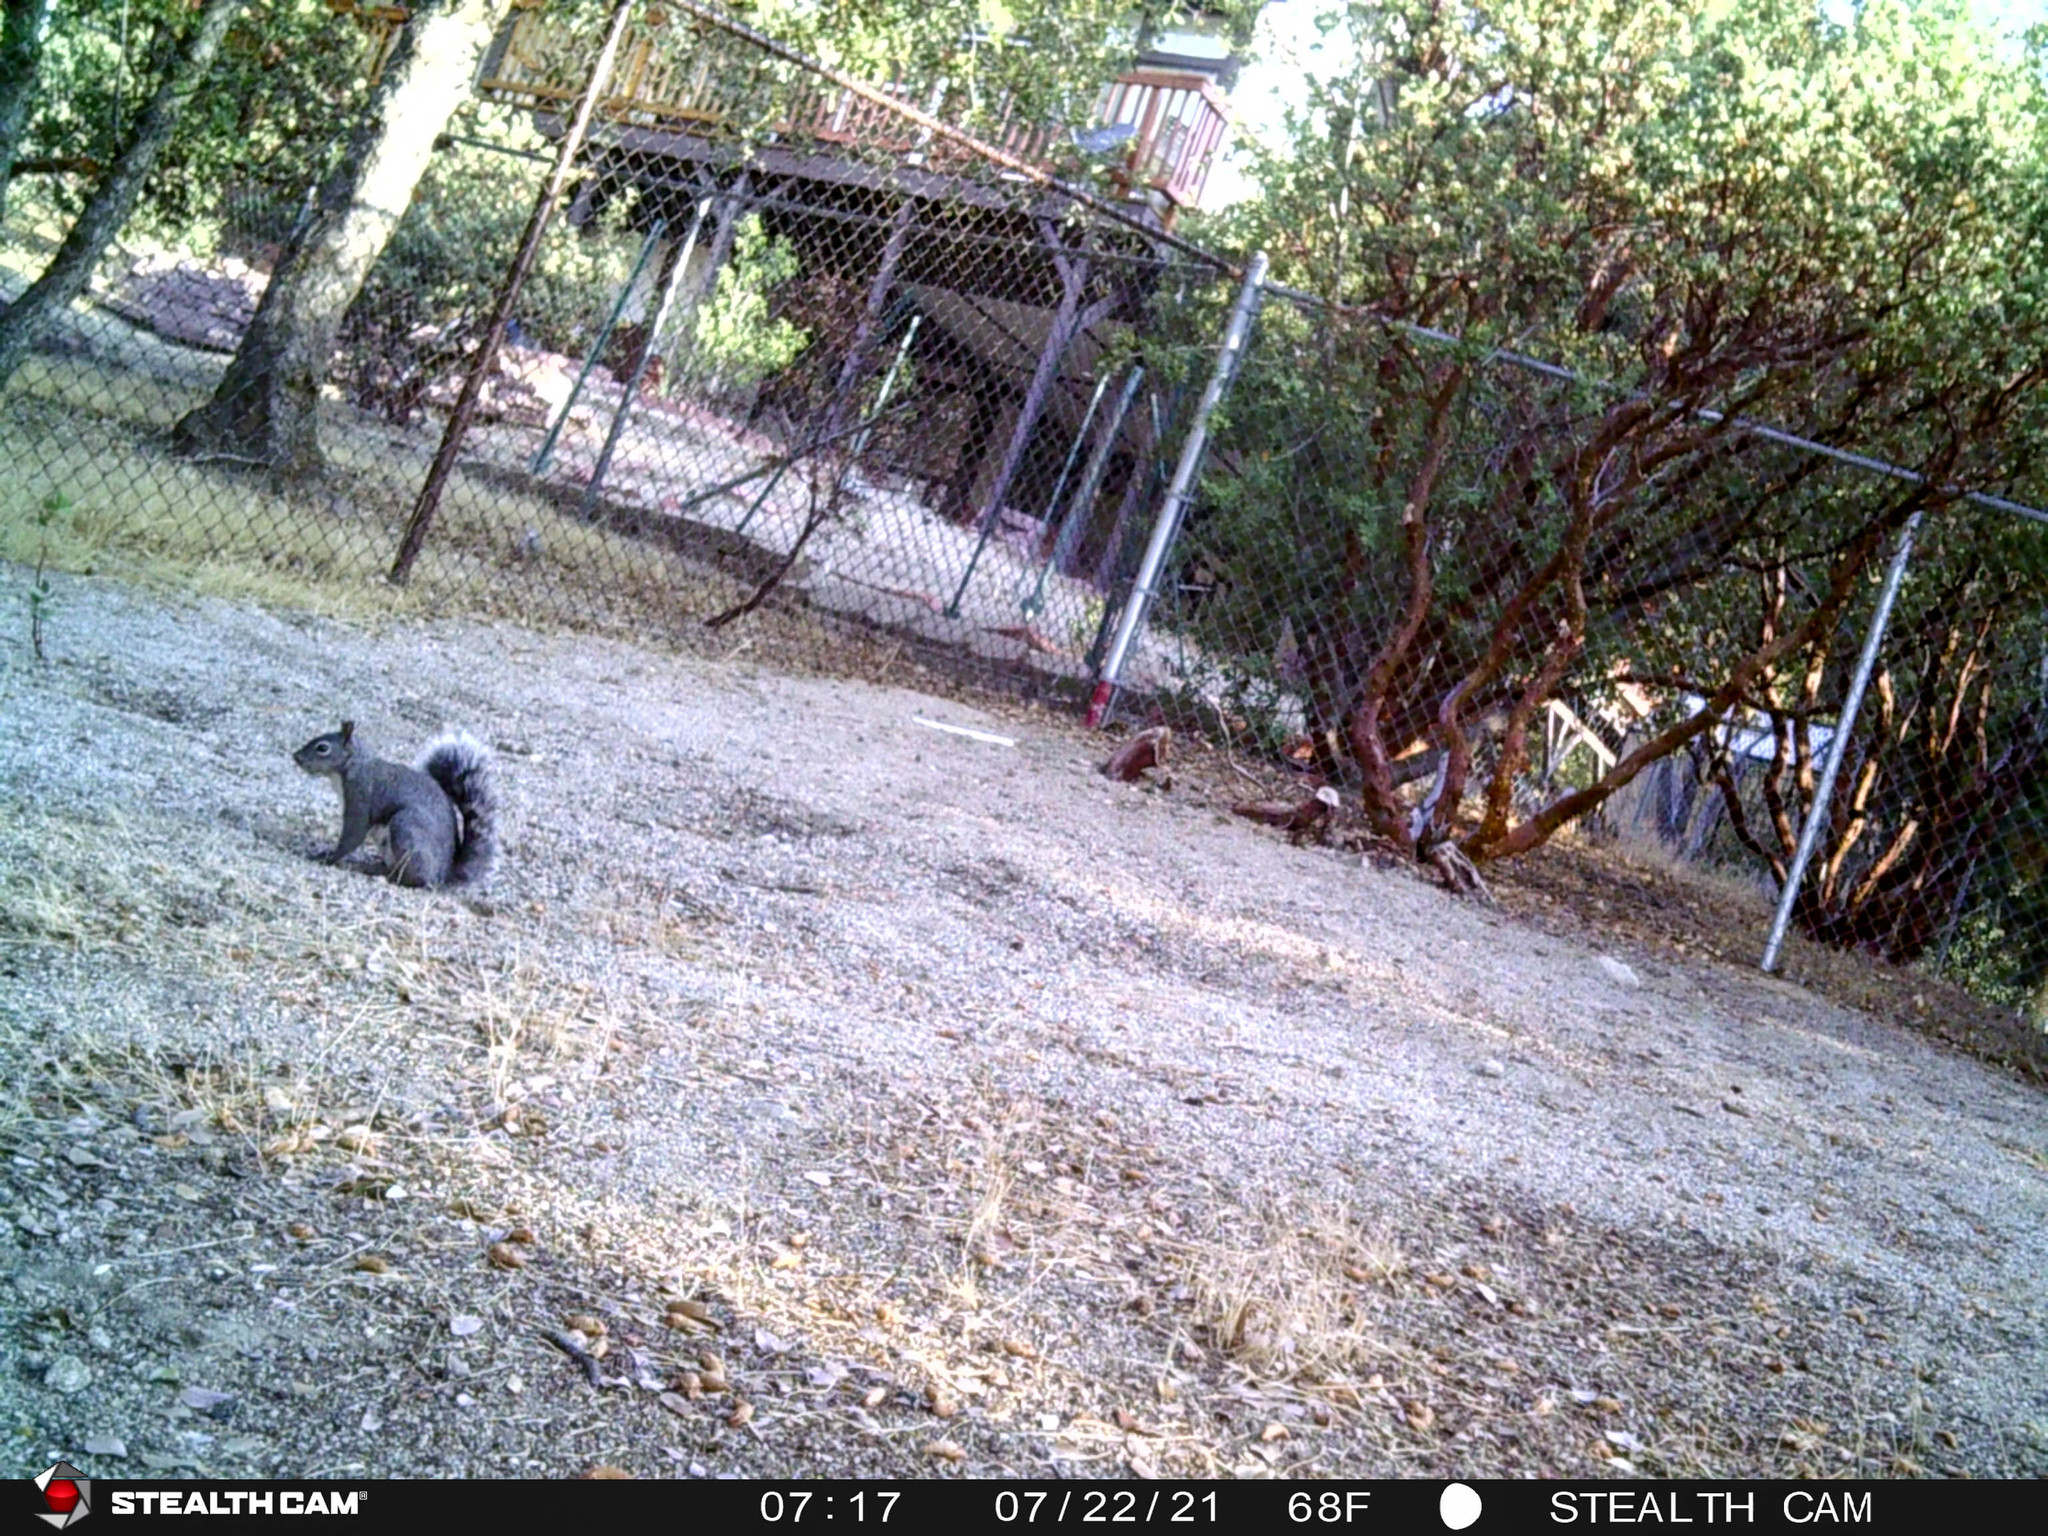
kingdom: Animalia
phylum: Chordata
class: Mammalia
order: Rodentia
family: Sciuridae
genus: Sciurus
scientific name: Sciurus griseus
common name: Western gray squirrel
